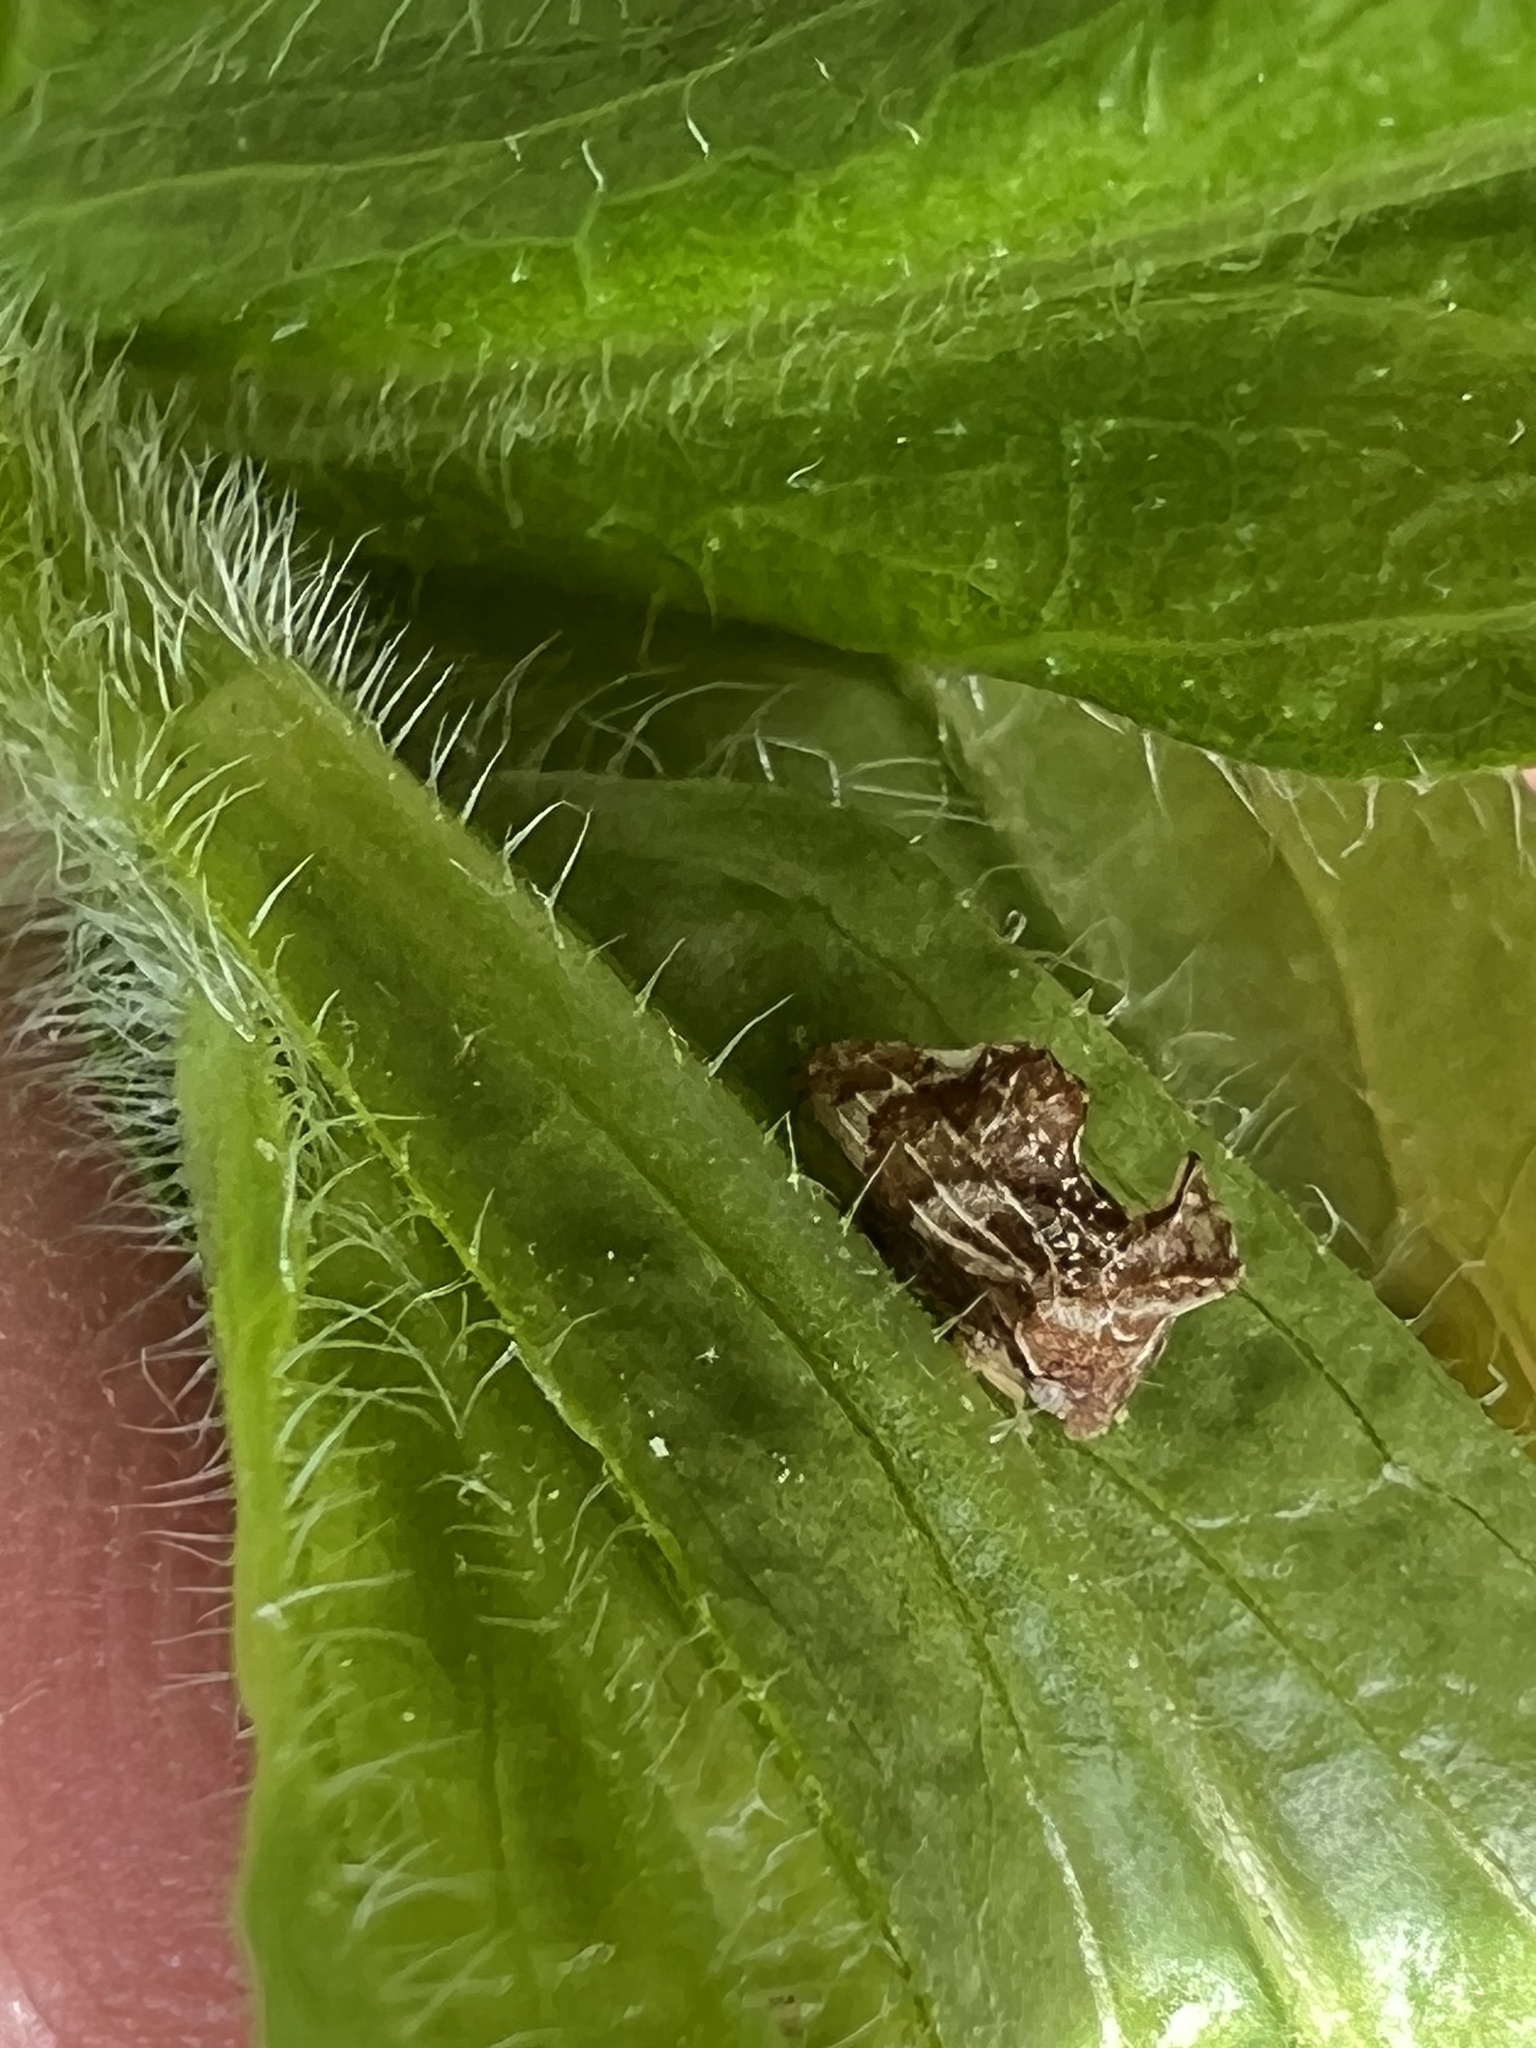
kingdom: Animalia
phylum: Arthropoda
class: Insecta
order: Hemiptera
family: Membracidae
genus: Entylia
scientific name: Entylia carinata
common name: Keeled treehopper
